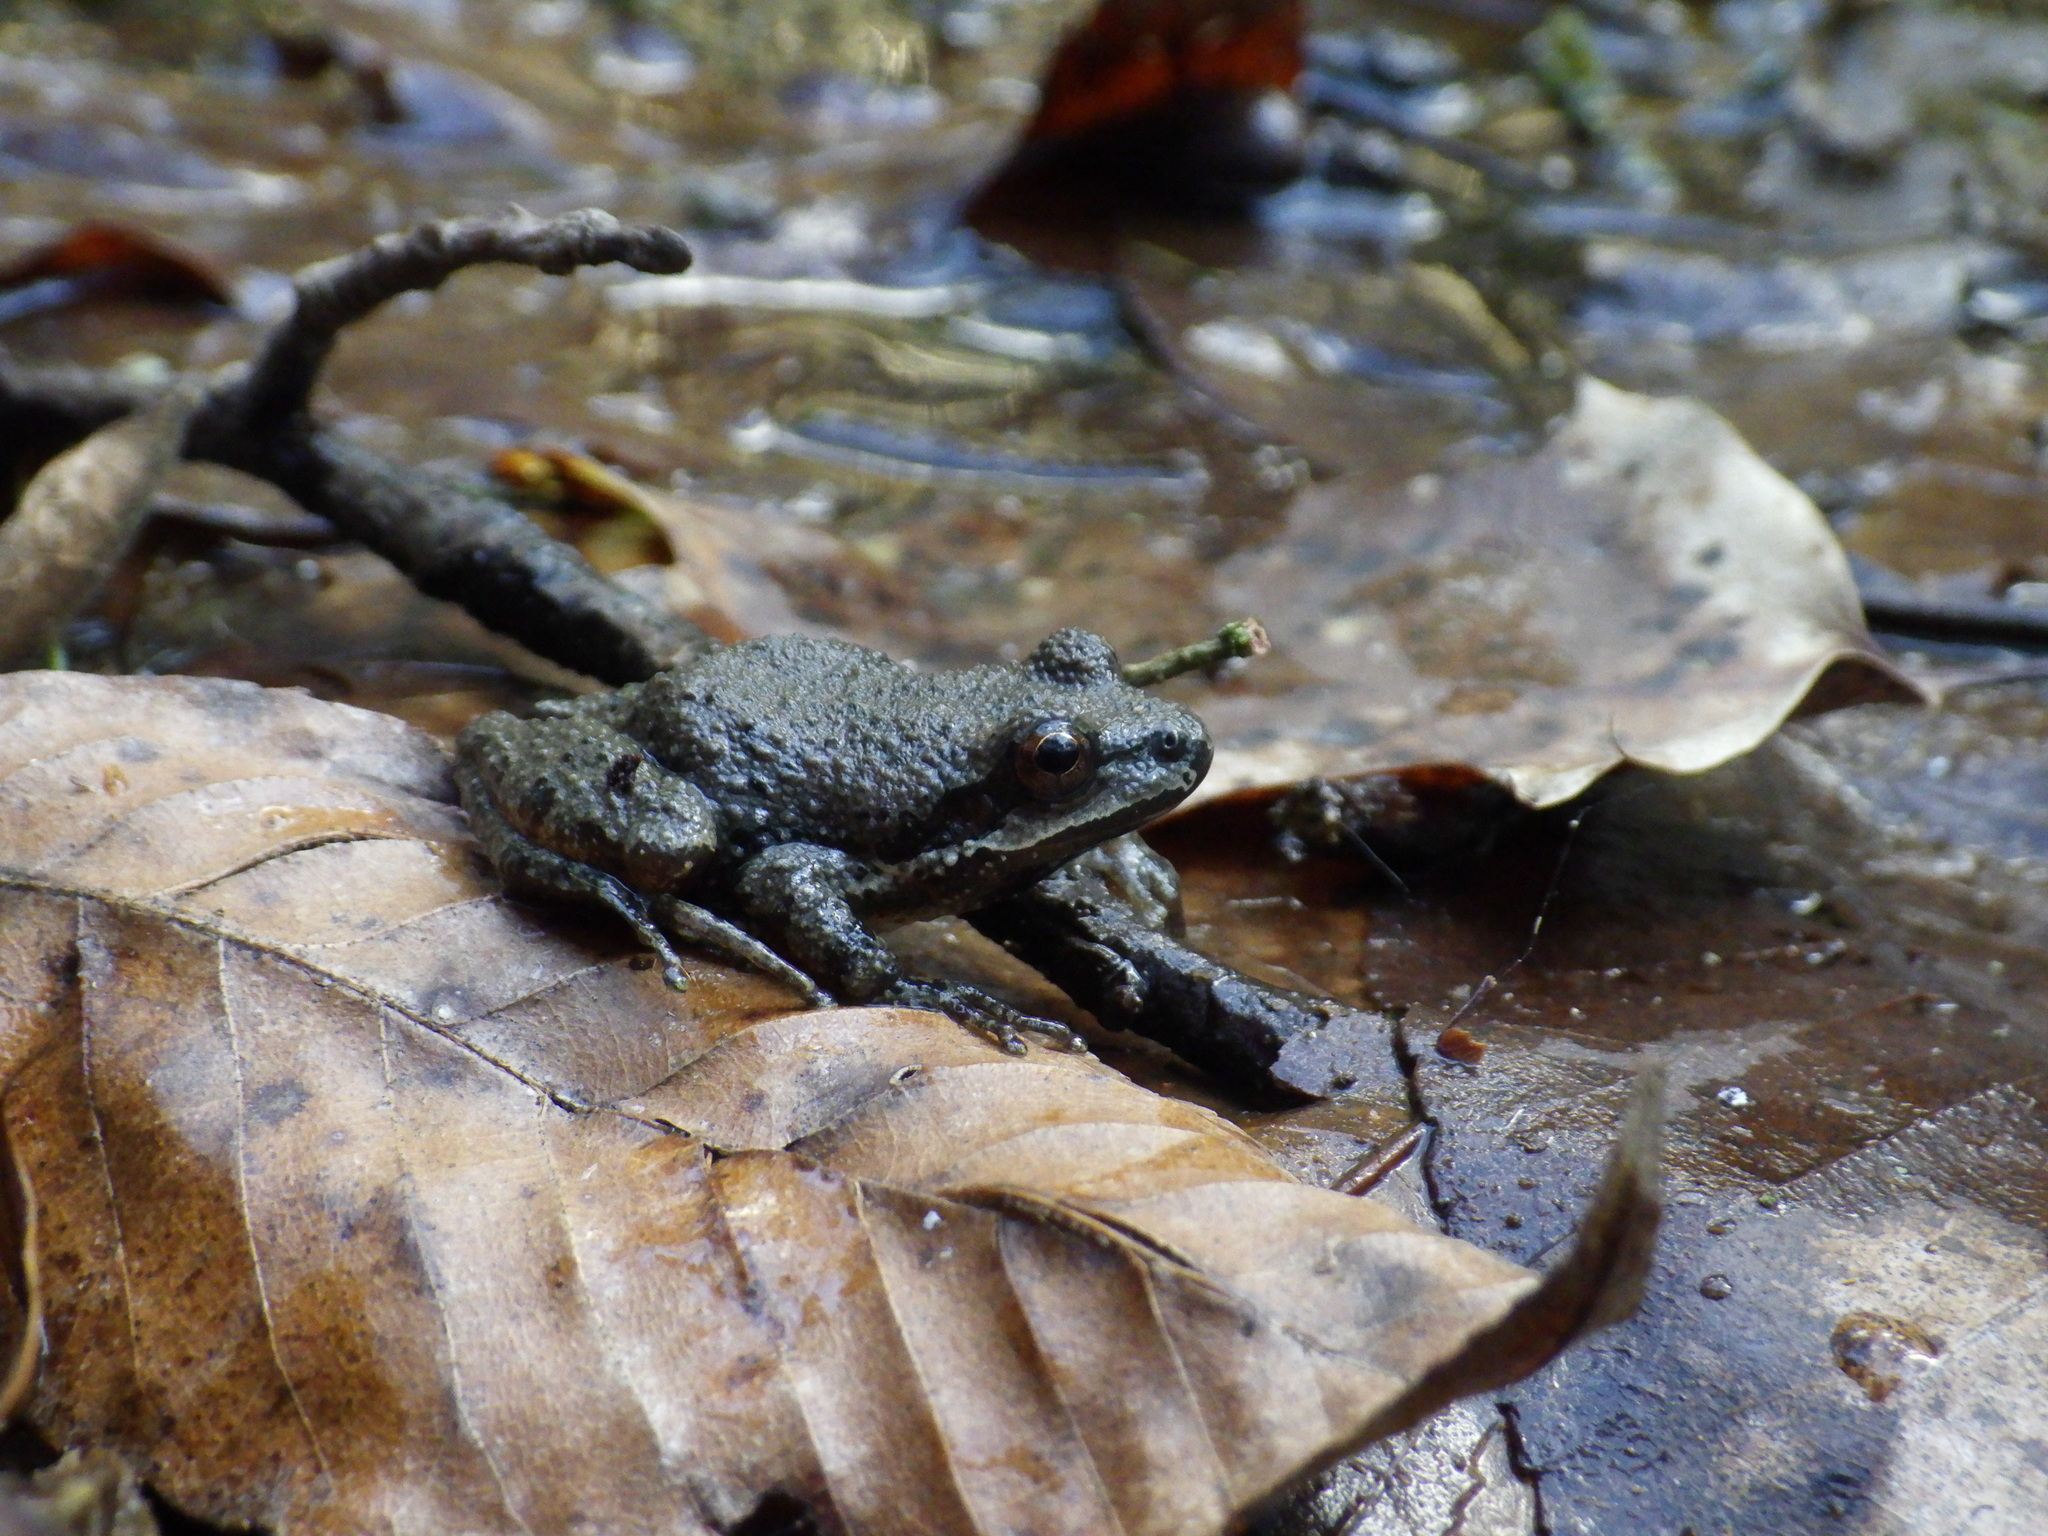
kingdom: Animalia
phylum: Chordata
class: Amphibia
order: Anura
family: Hylidae
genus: Pseudacris
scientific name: Pseudacris brachyphona
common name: Mountain chorus frog
